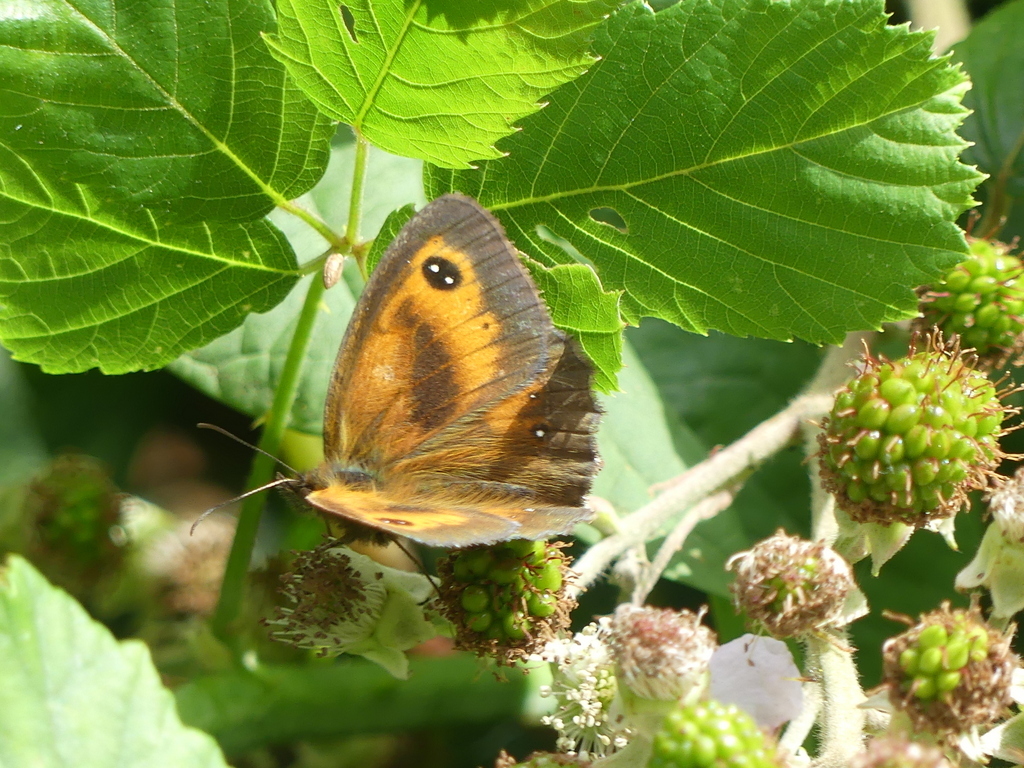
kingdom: Animalia
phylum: Arthropoda
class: Insecta
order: Lepidoptera
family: Nymphalidae
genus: Pyronia
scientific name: Pyronia tithonus
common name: Gatekeeper
